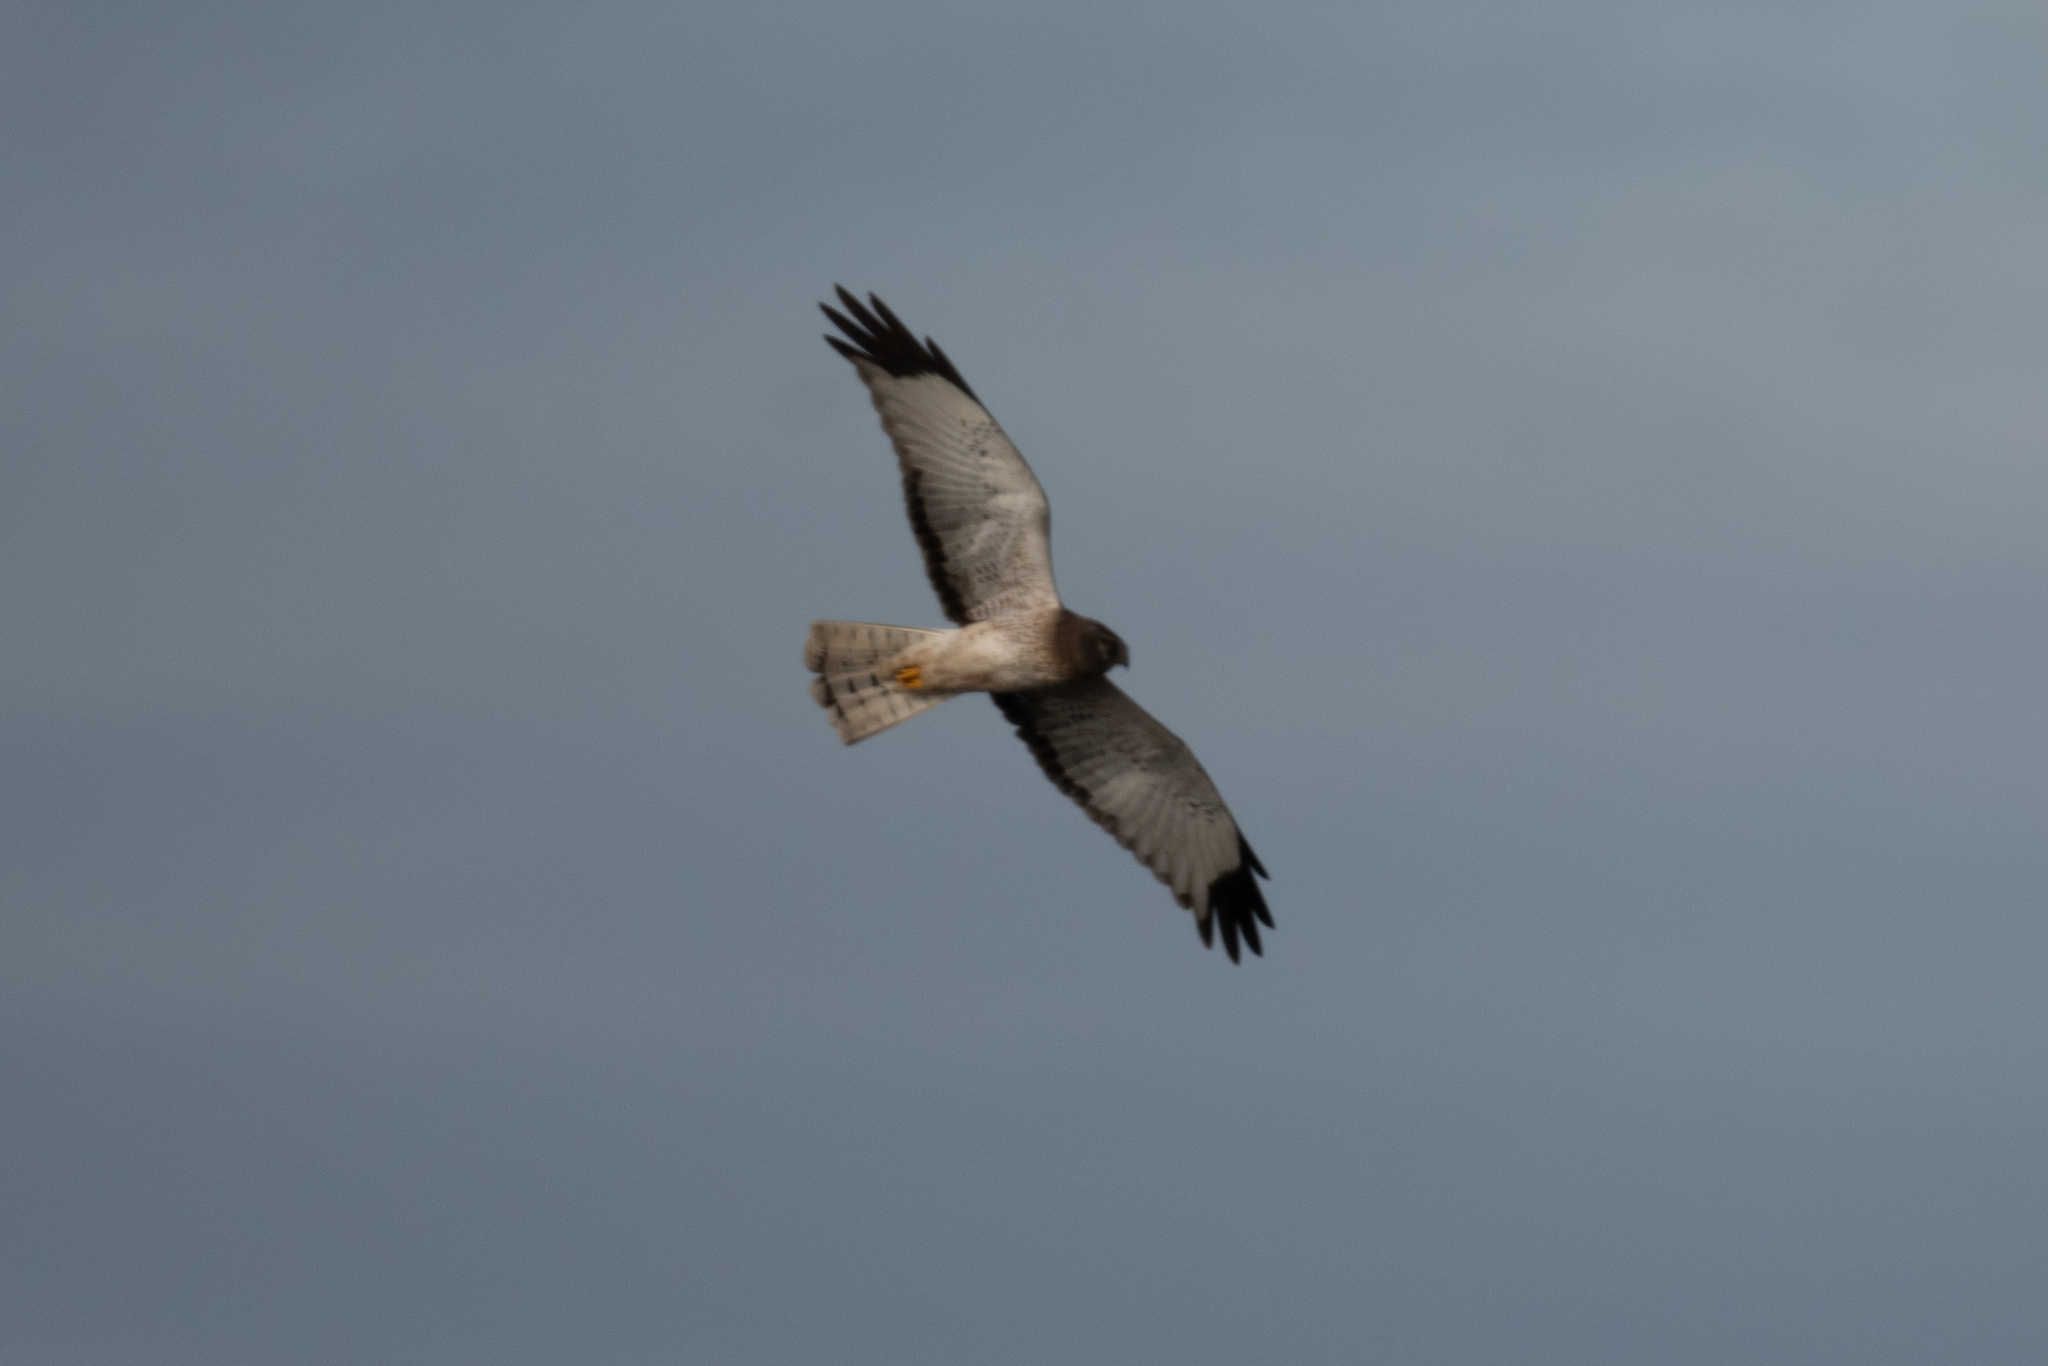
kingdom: Animalia
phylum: Chordata
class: Aves
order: Accipitriformes
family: Accipitridae
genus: Circus
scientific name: Circus cyaneus
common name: Hen harrier
